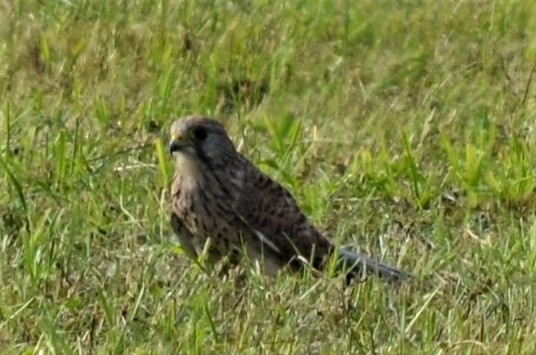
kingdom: Animalia
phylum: Chordata
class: Aves
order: Falconiformes
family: Falconidae
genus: Falco
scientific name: Falco tinnunculus
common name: Common kestrel
